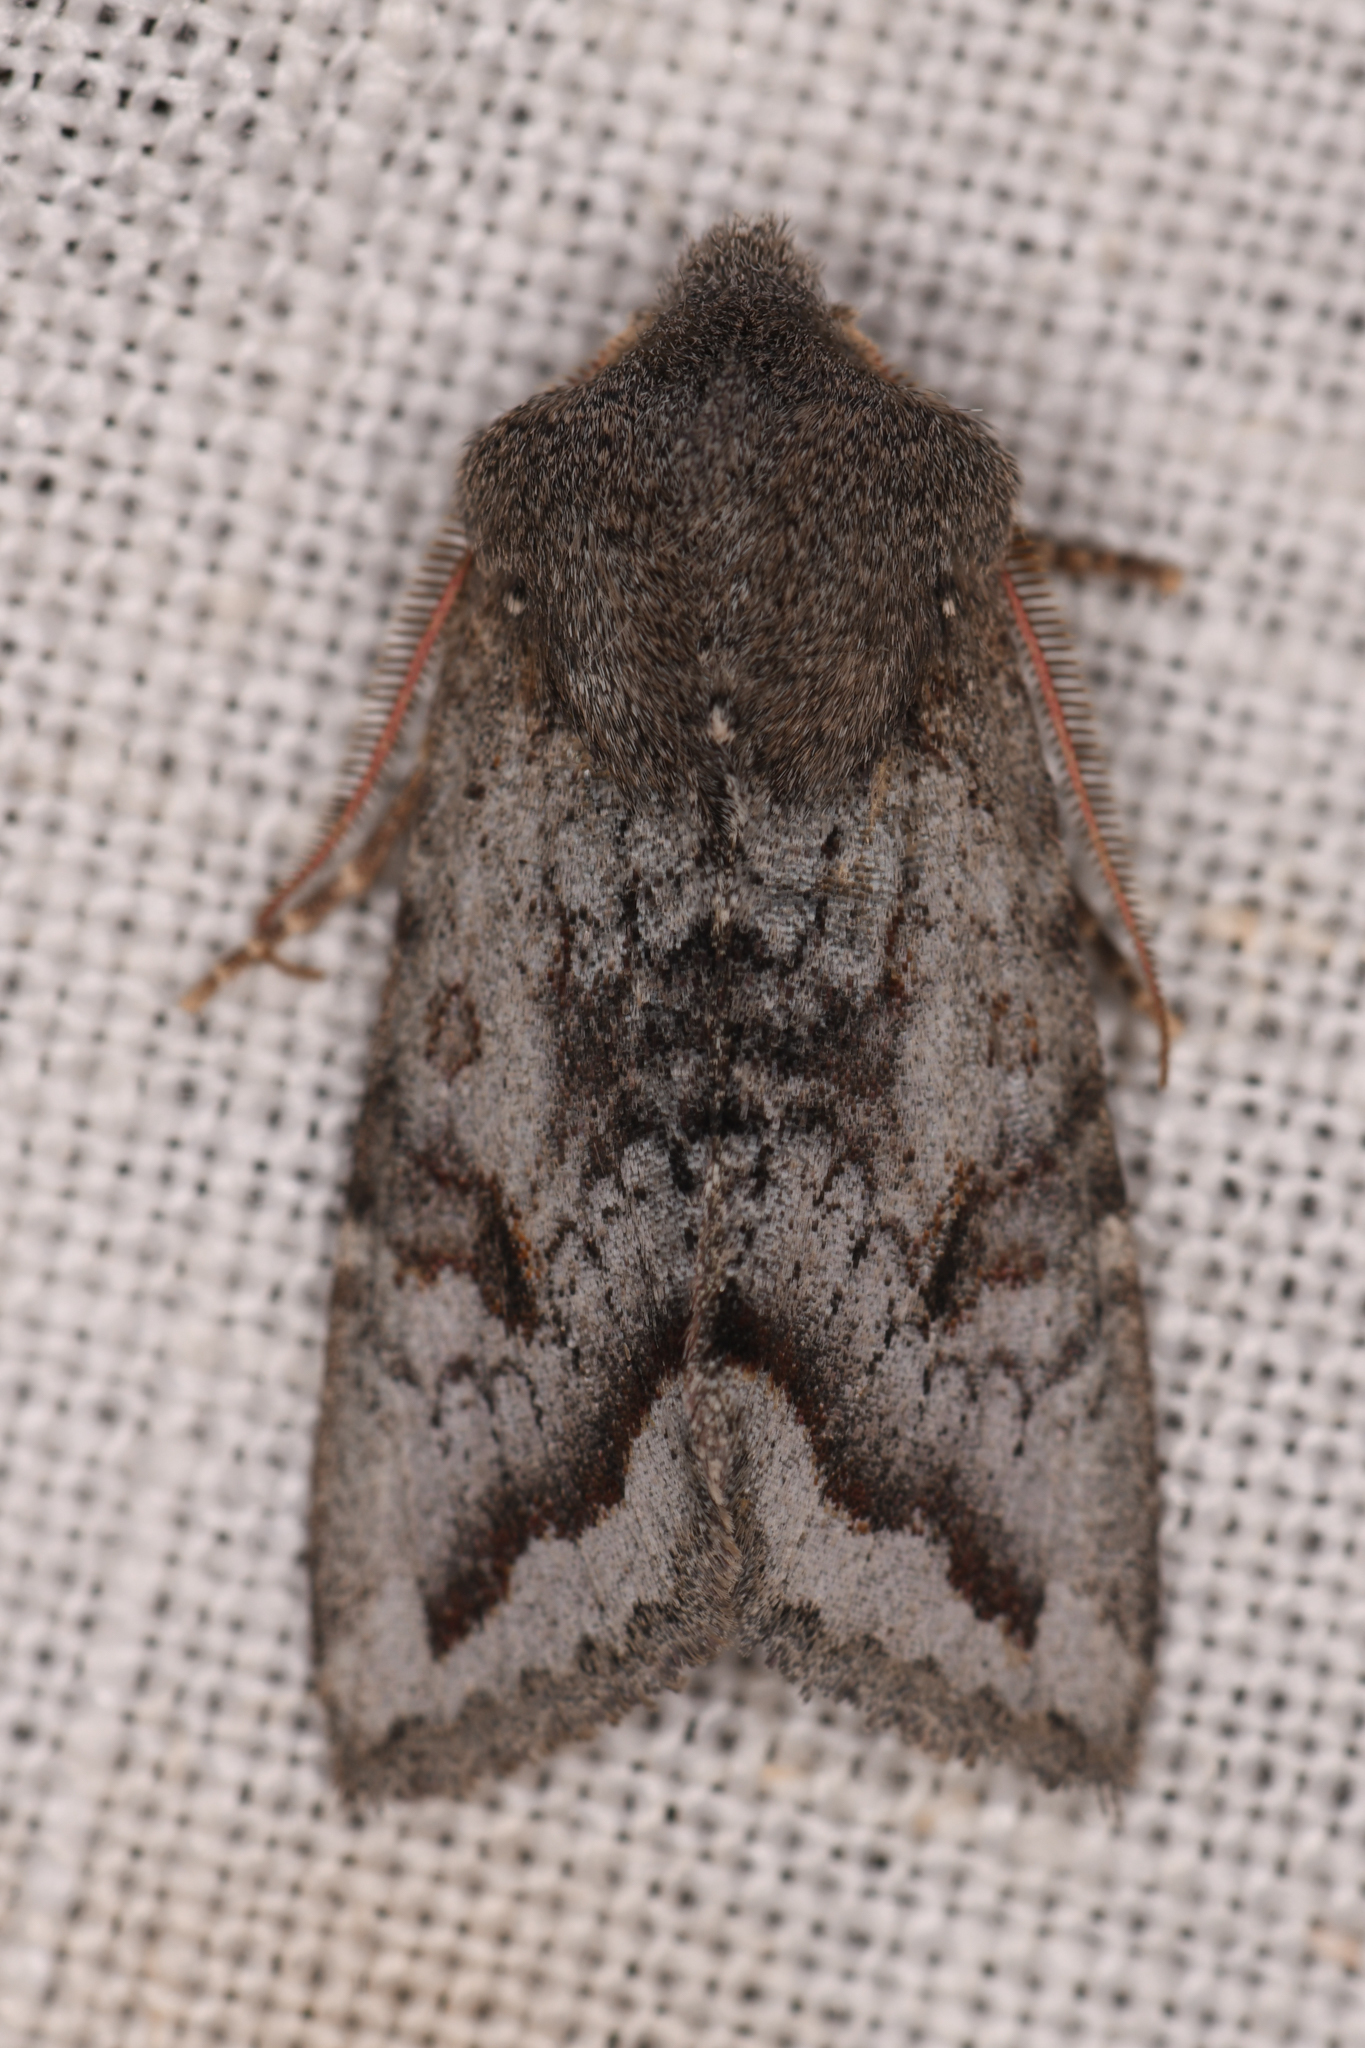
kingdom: Animalia
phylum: Arthropoda
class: Insecta
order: Lepidoptera
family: Noctuidae
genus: Orthosia
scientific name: Orthosia erythrolita
